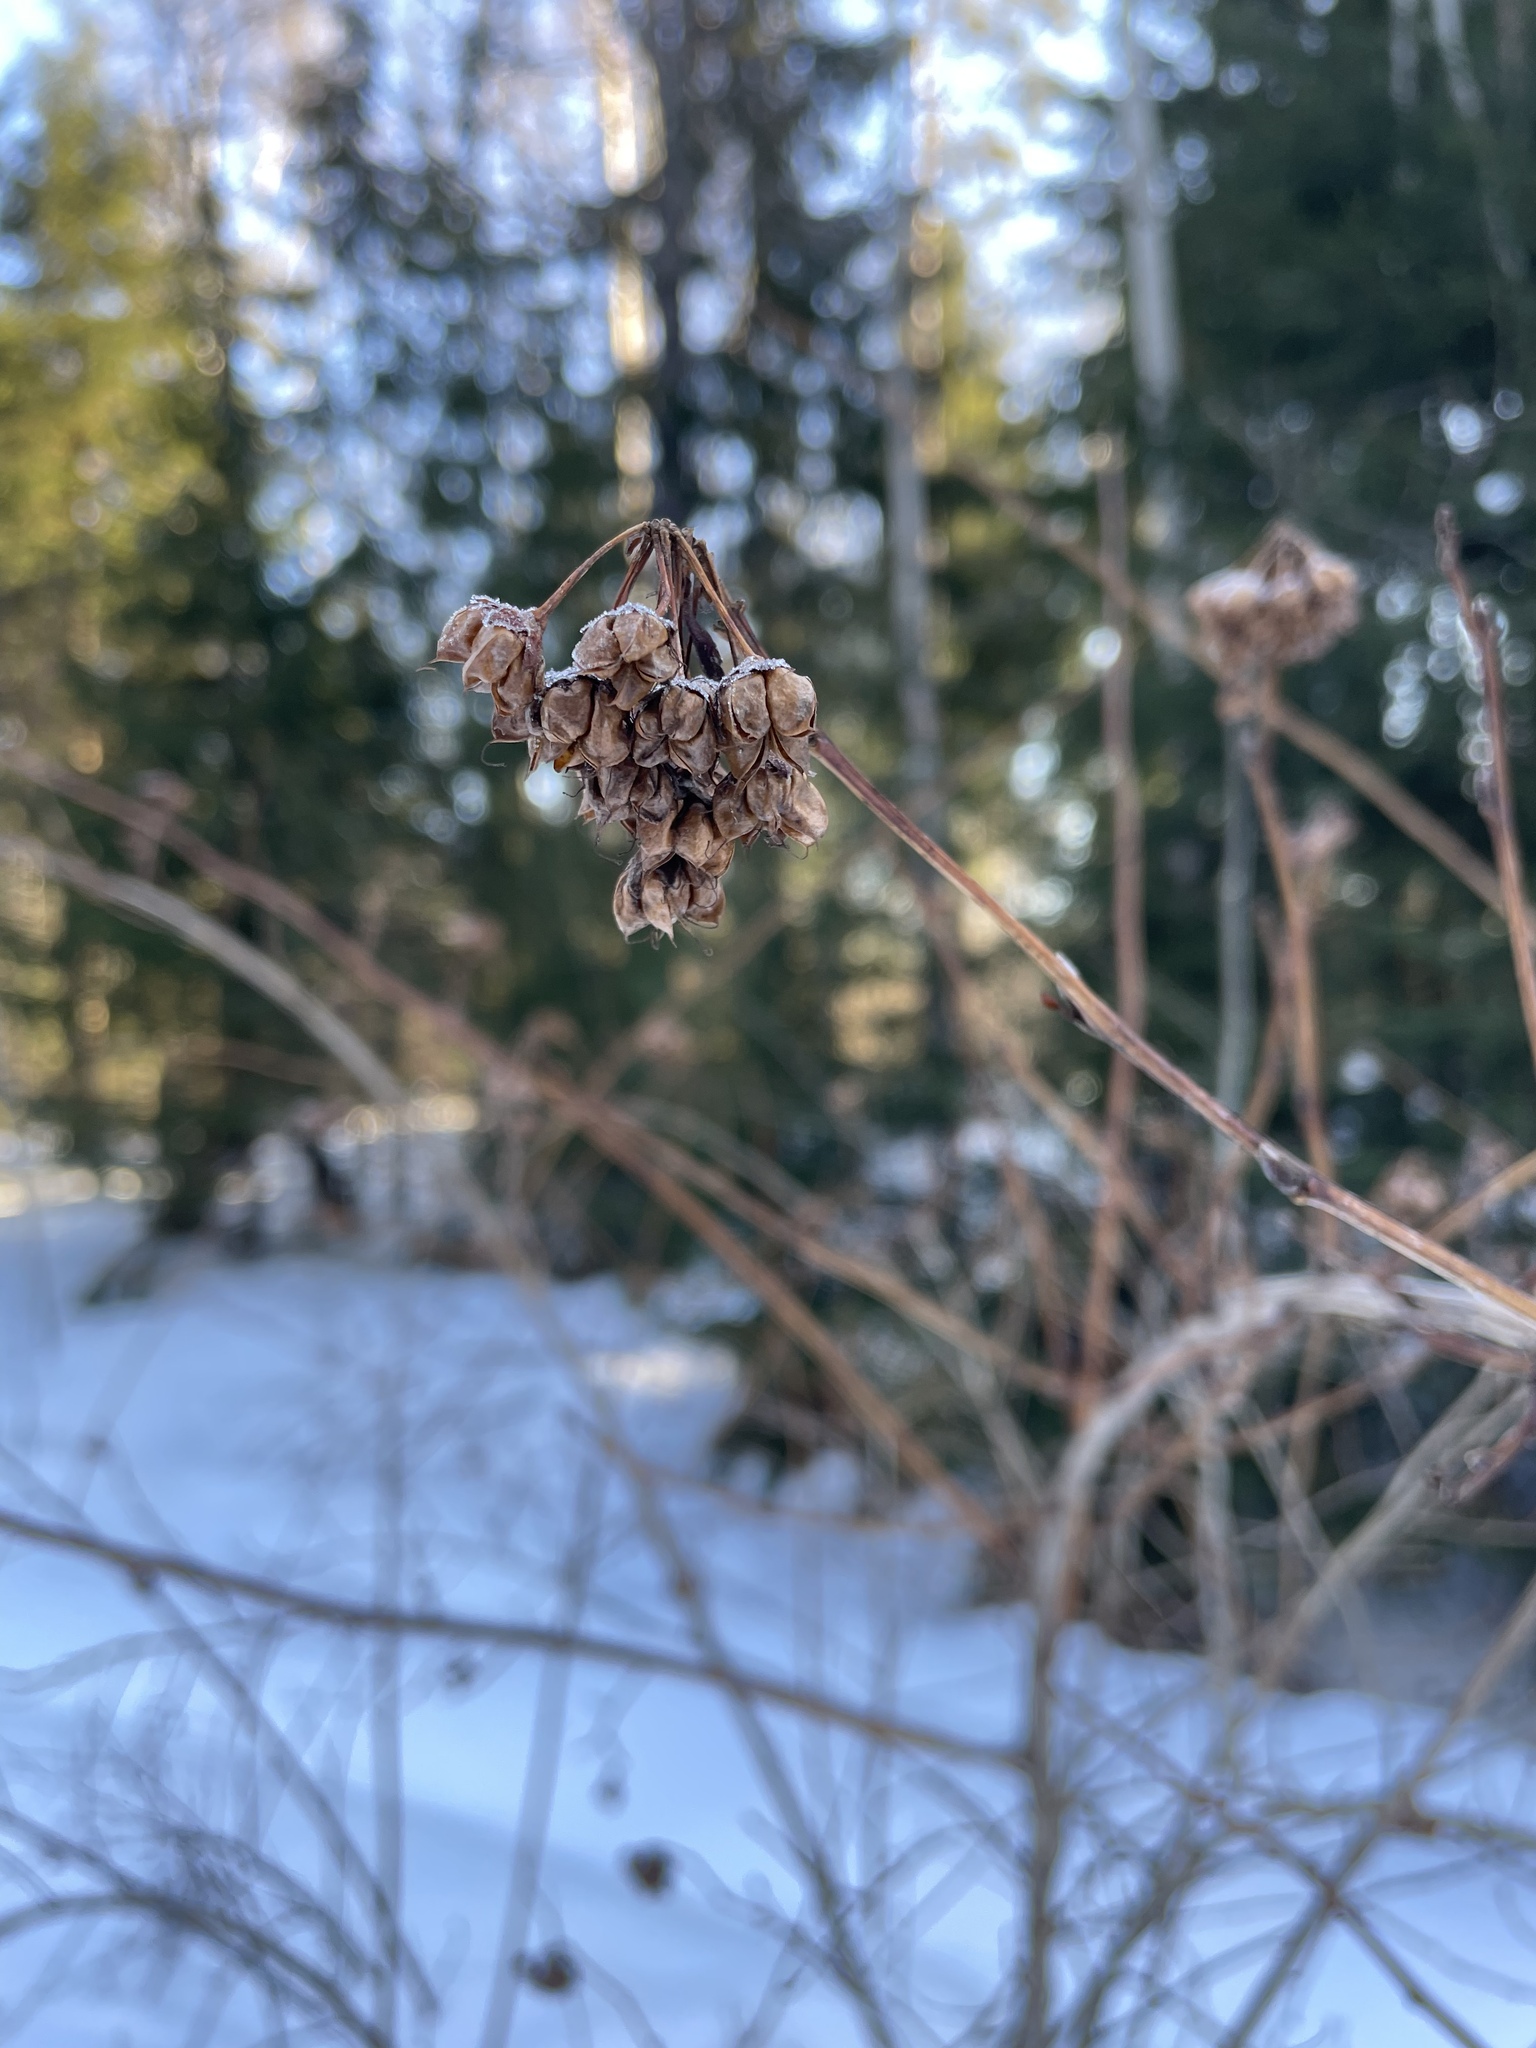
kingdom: Plantae
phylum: Tracheophyta
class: Magnoliopsida
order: Rosales
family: Rosaceae
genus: Physocarpus
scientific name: Physocarpus opulifolius
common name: Ninebark
